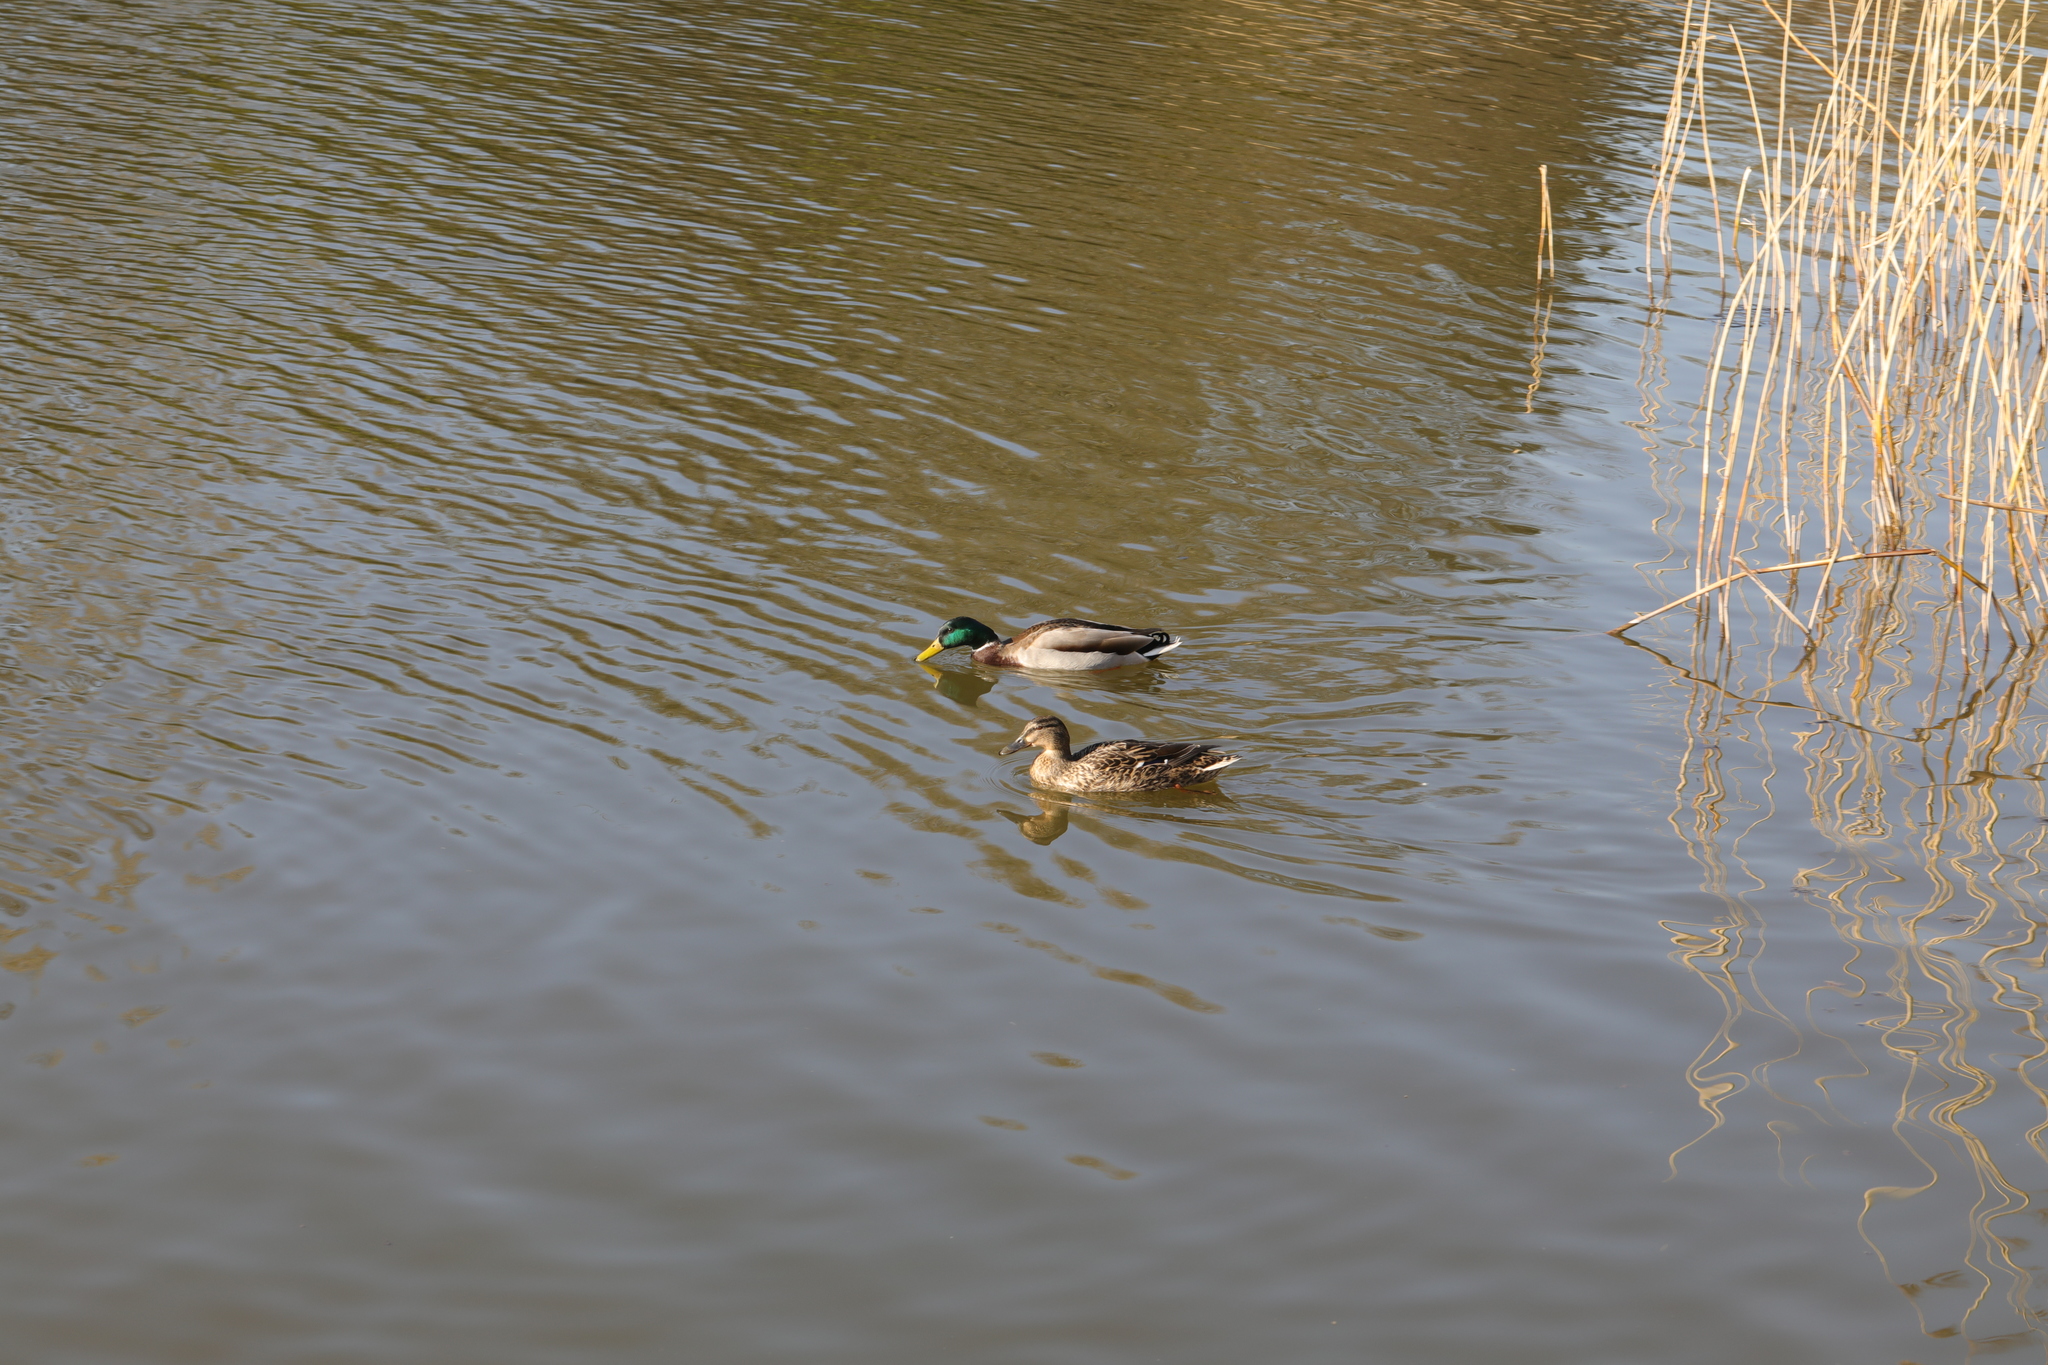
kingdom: Animalia
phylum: Chordata
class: Aves
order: Anseriformes
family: Anatidae
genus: Anas
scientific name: Anas platyrhynchos
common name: Mallard
